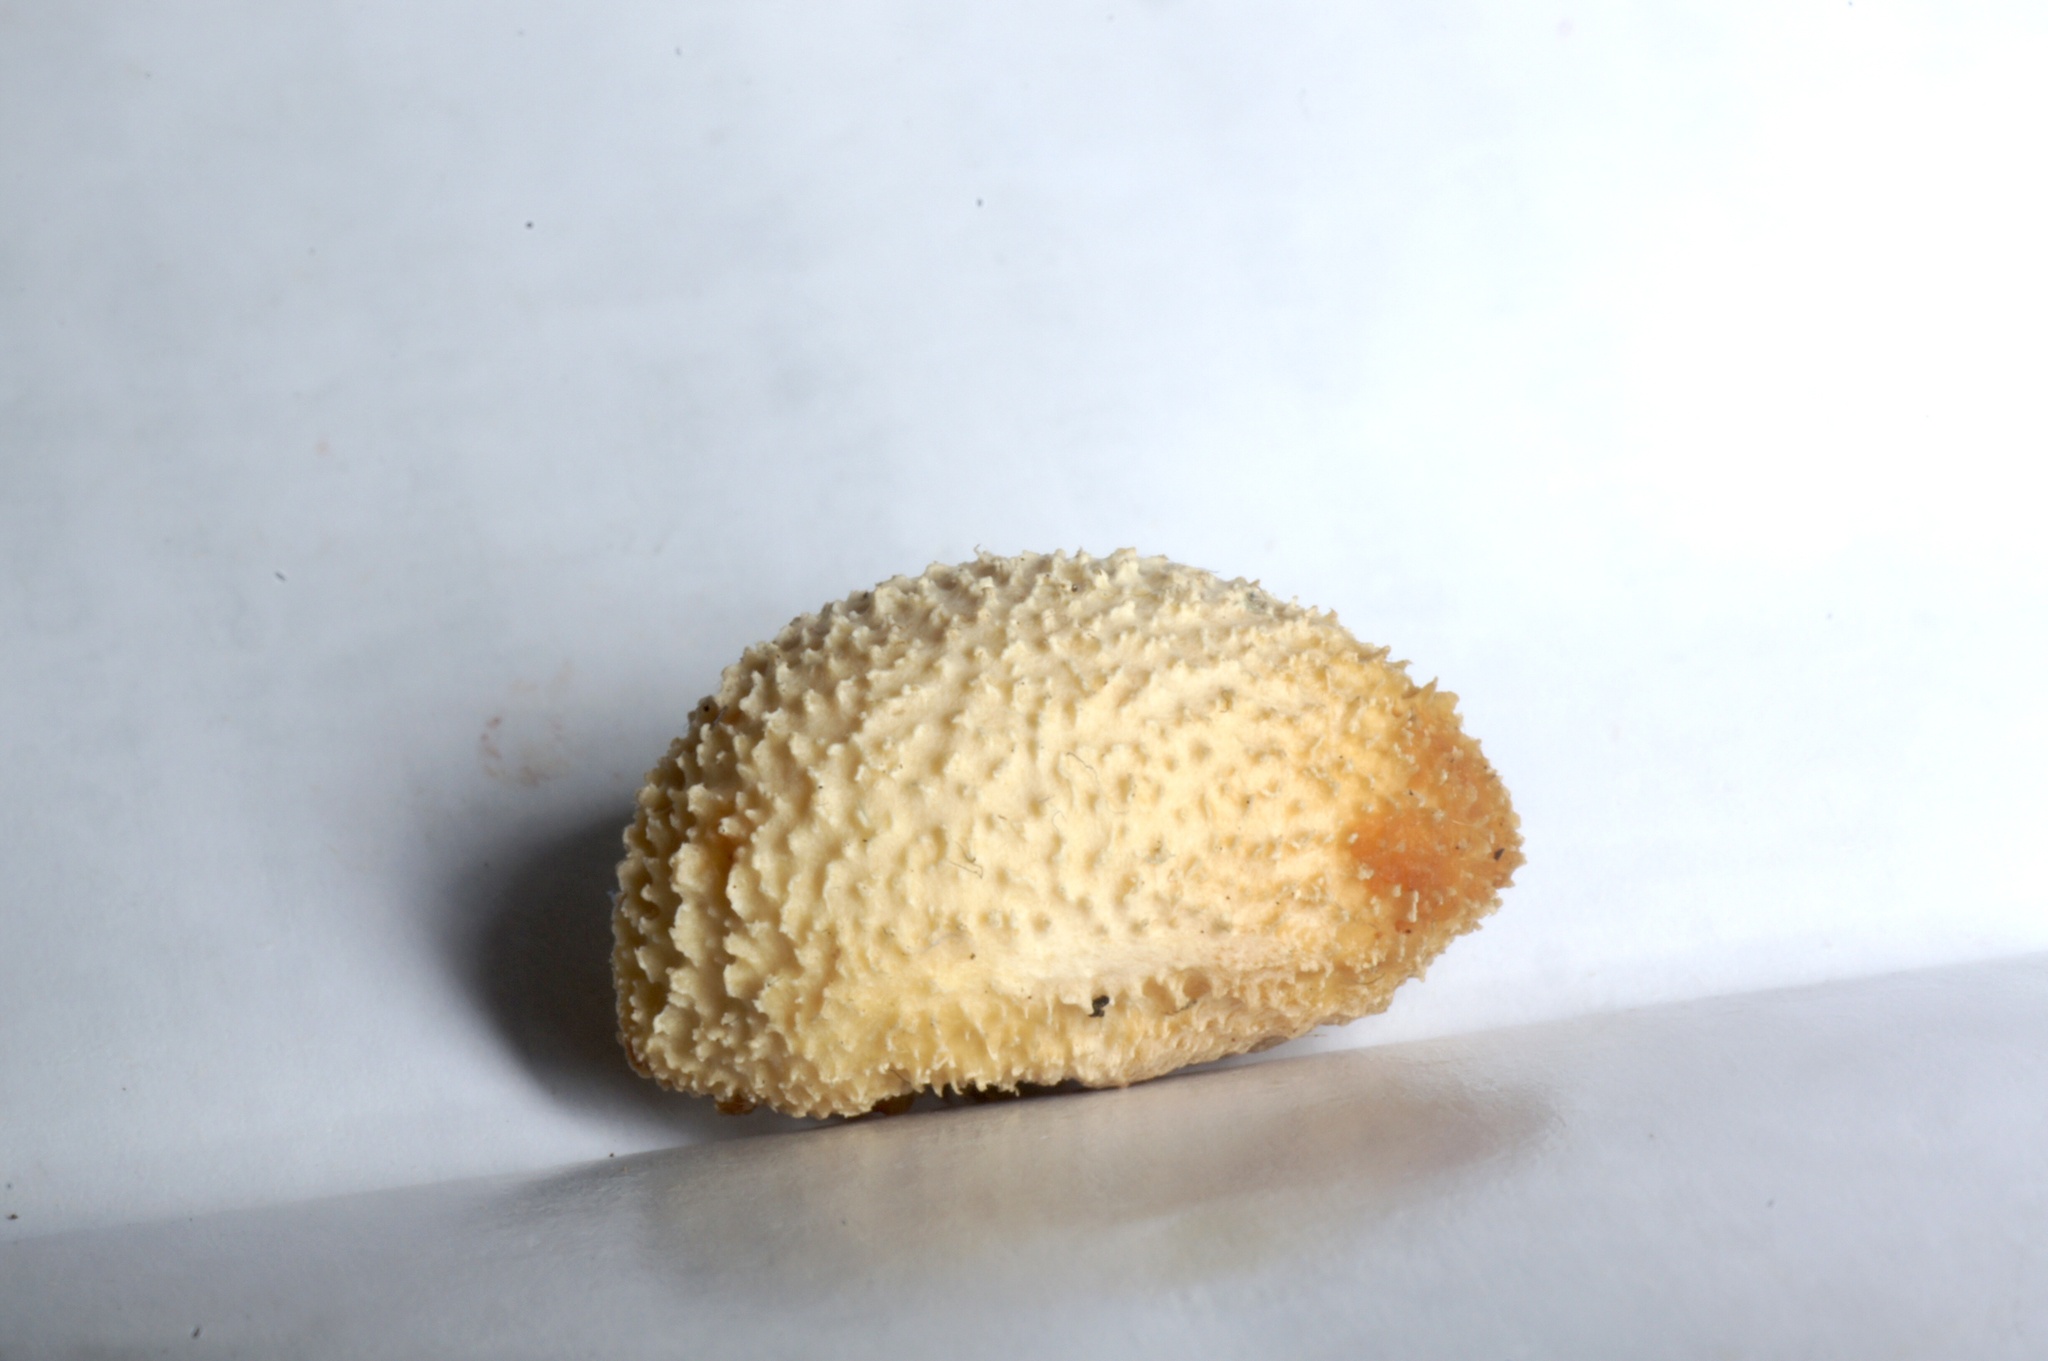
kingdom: Plantae
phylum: Tracheophyta
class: Magnoliopsida
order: Ranunculales
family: Menispermaceae
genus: Tinospora
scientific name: Tinospora tinosporoides
